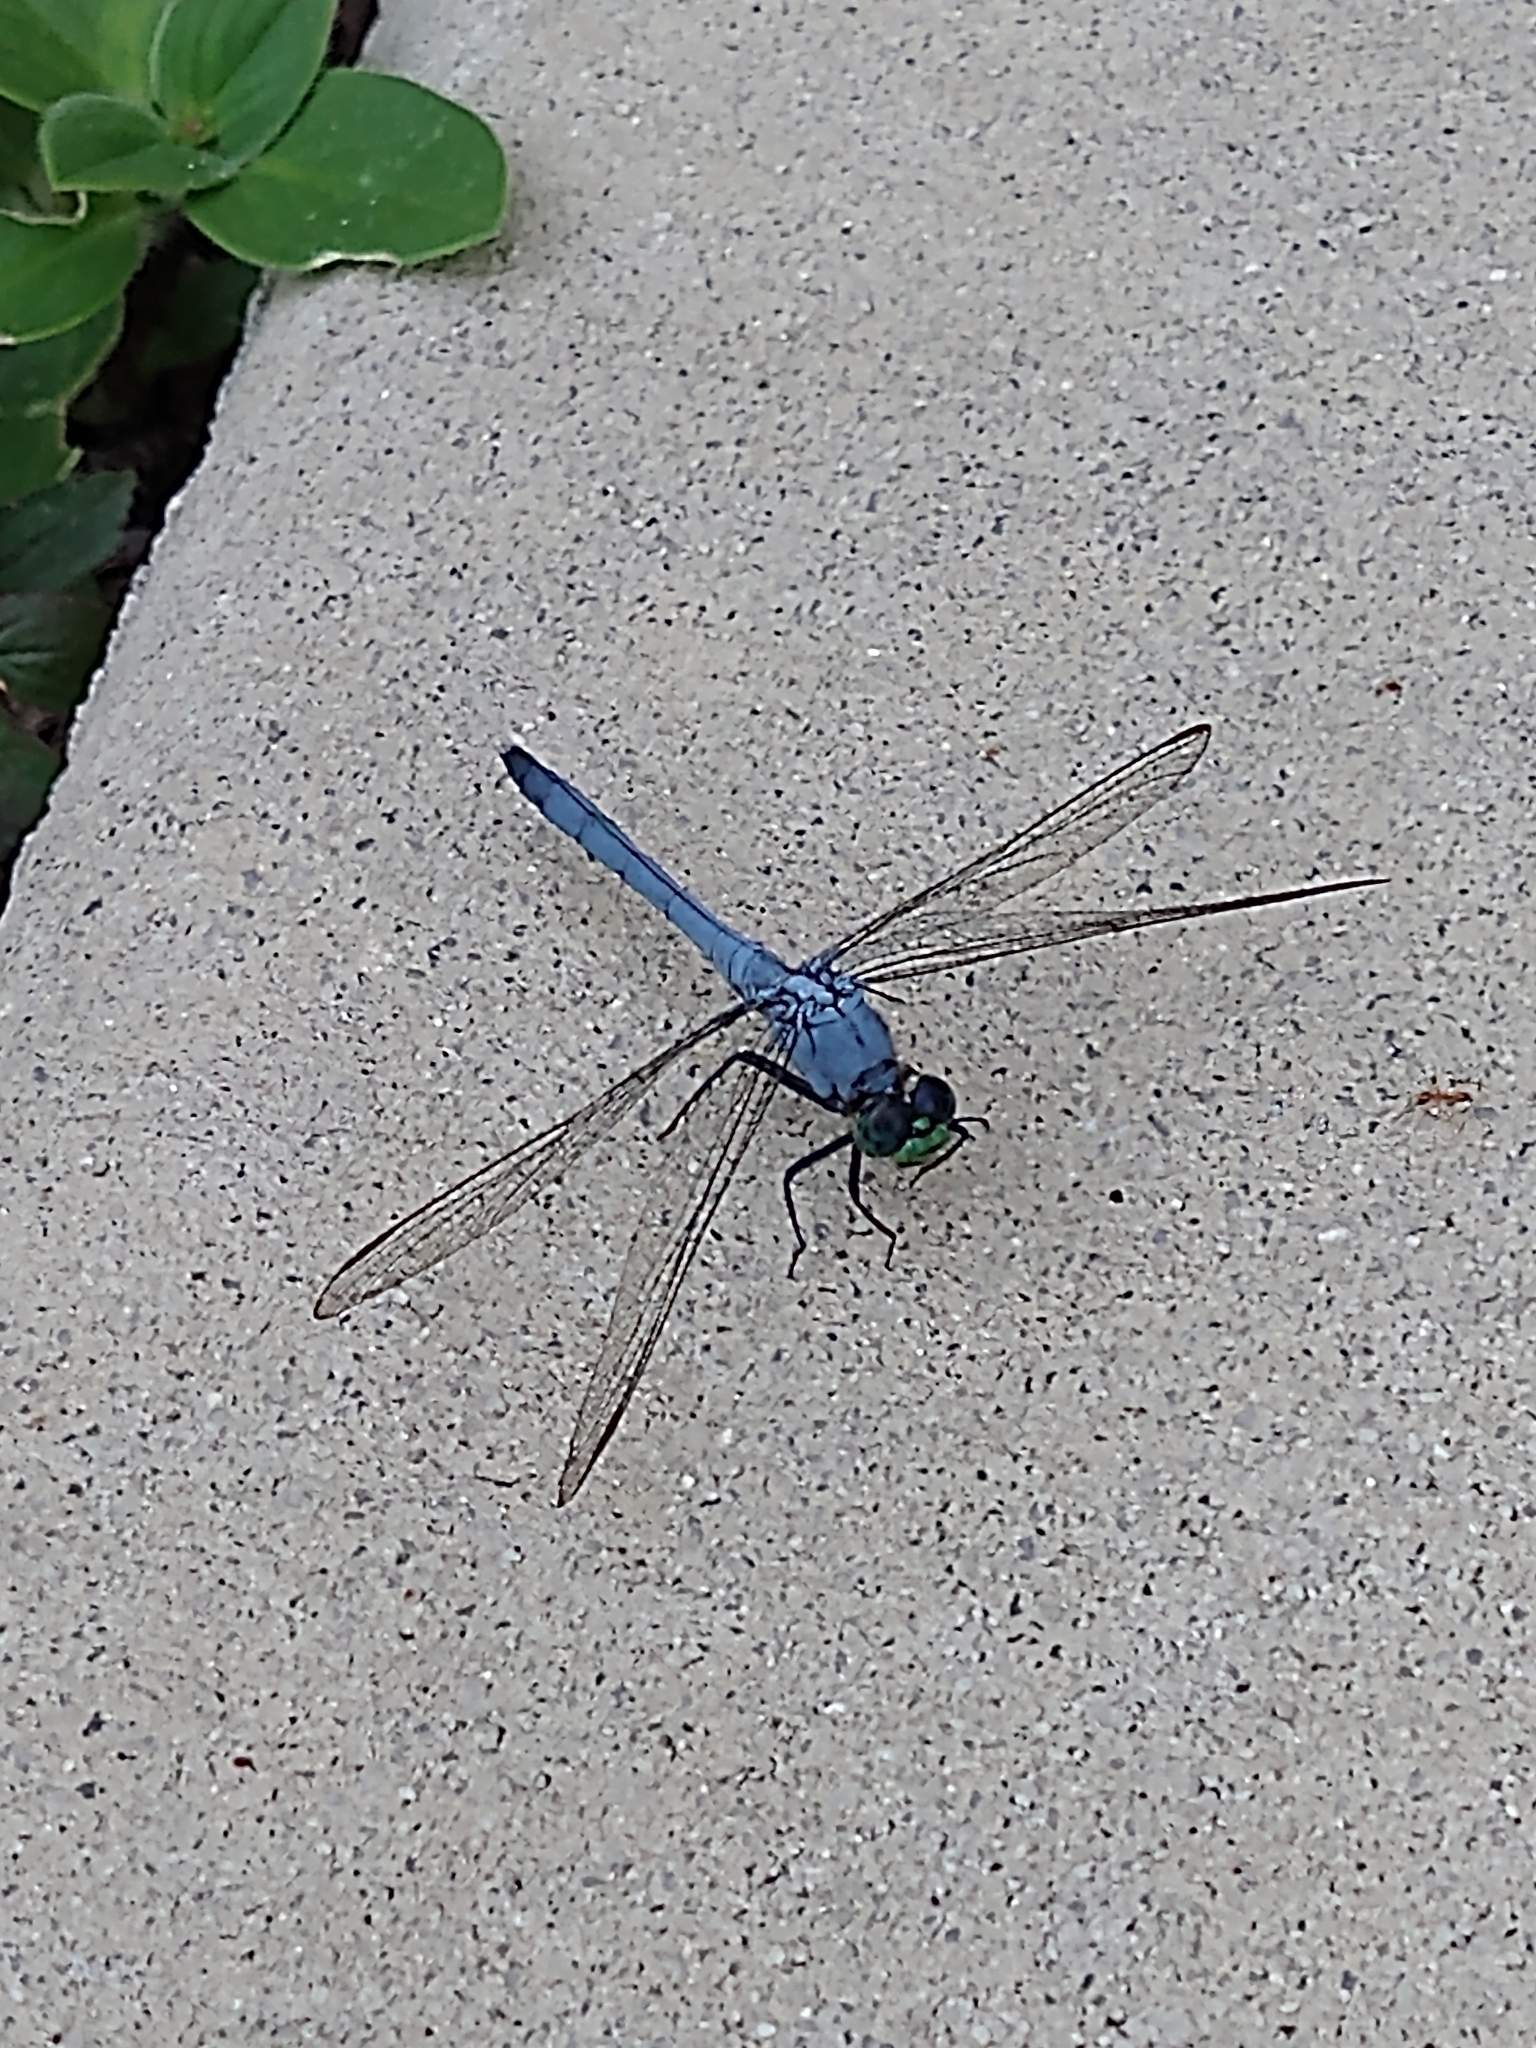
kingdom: Animalia
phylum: Arthropoda
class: Insecta
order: Odonata
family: Libellulidae
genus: Erythemis
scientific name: Erythemis simplicicollis
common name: Eastern pondhawk
